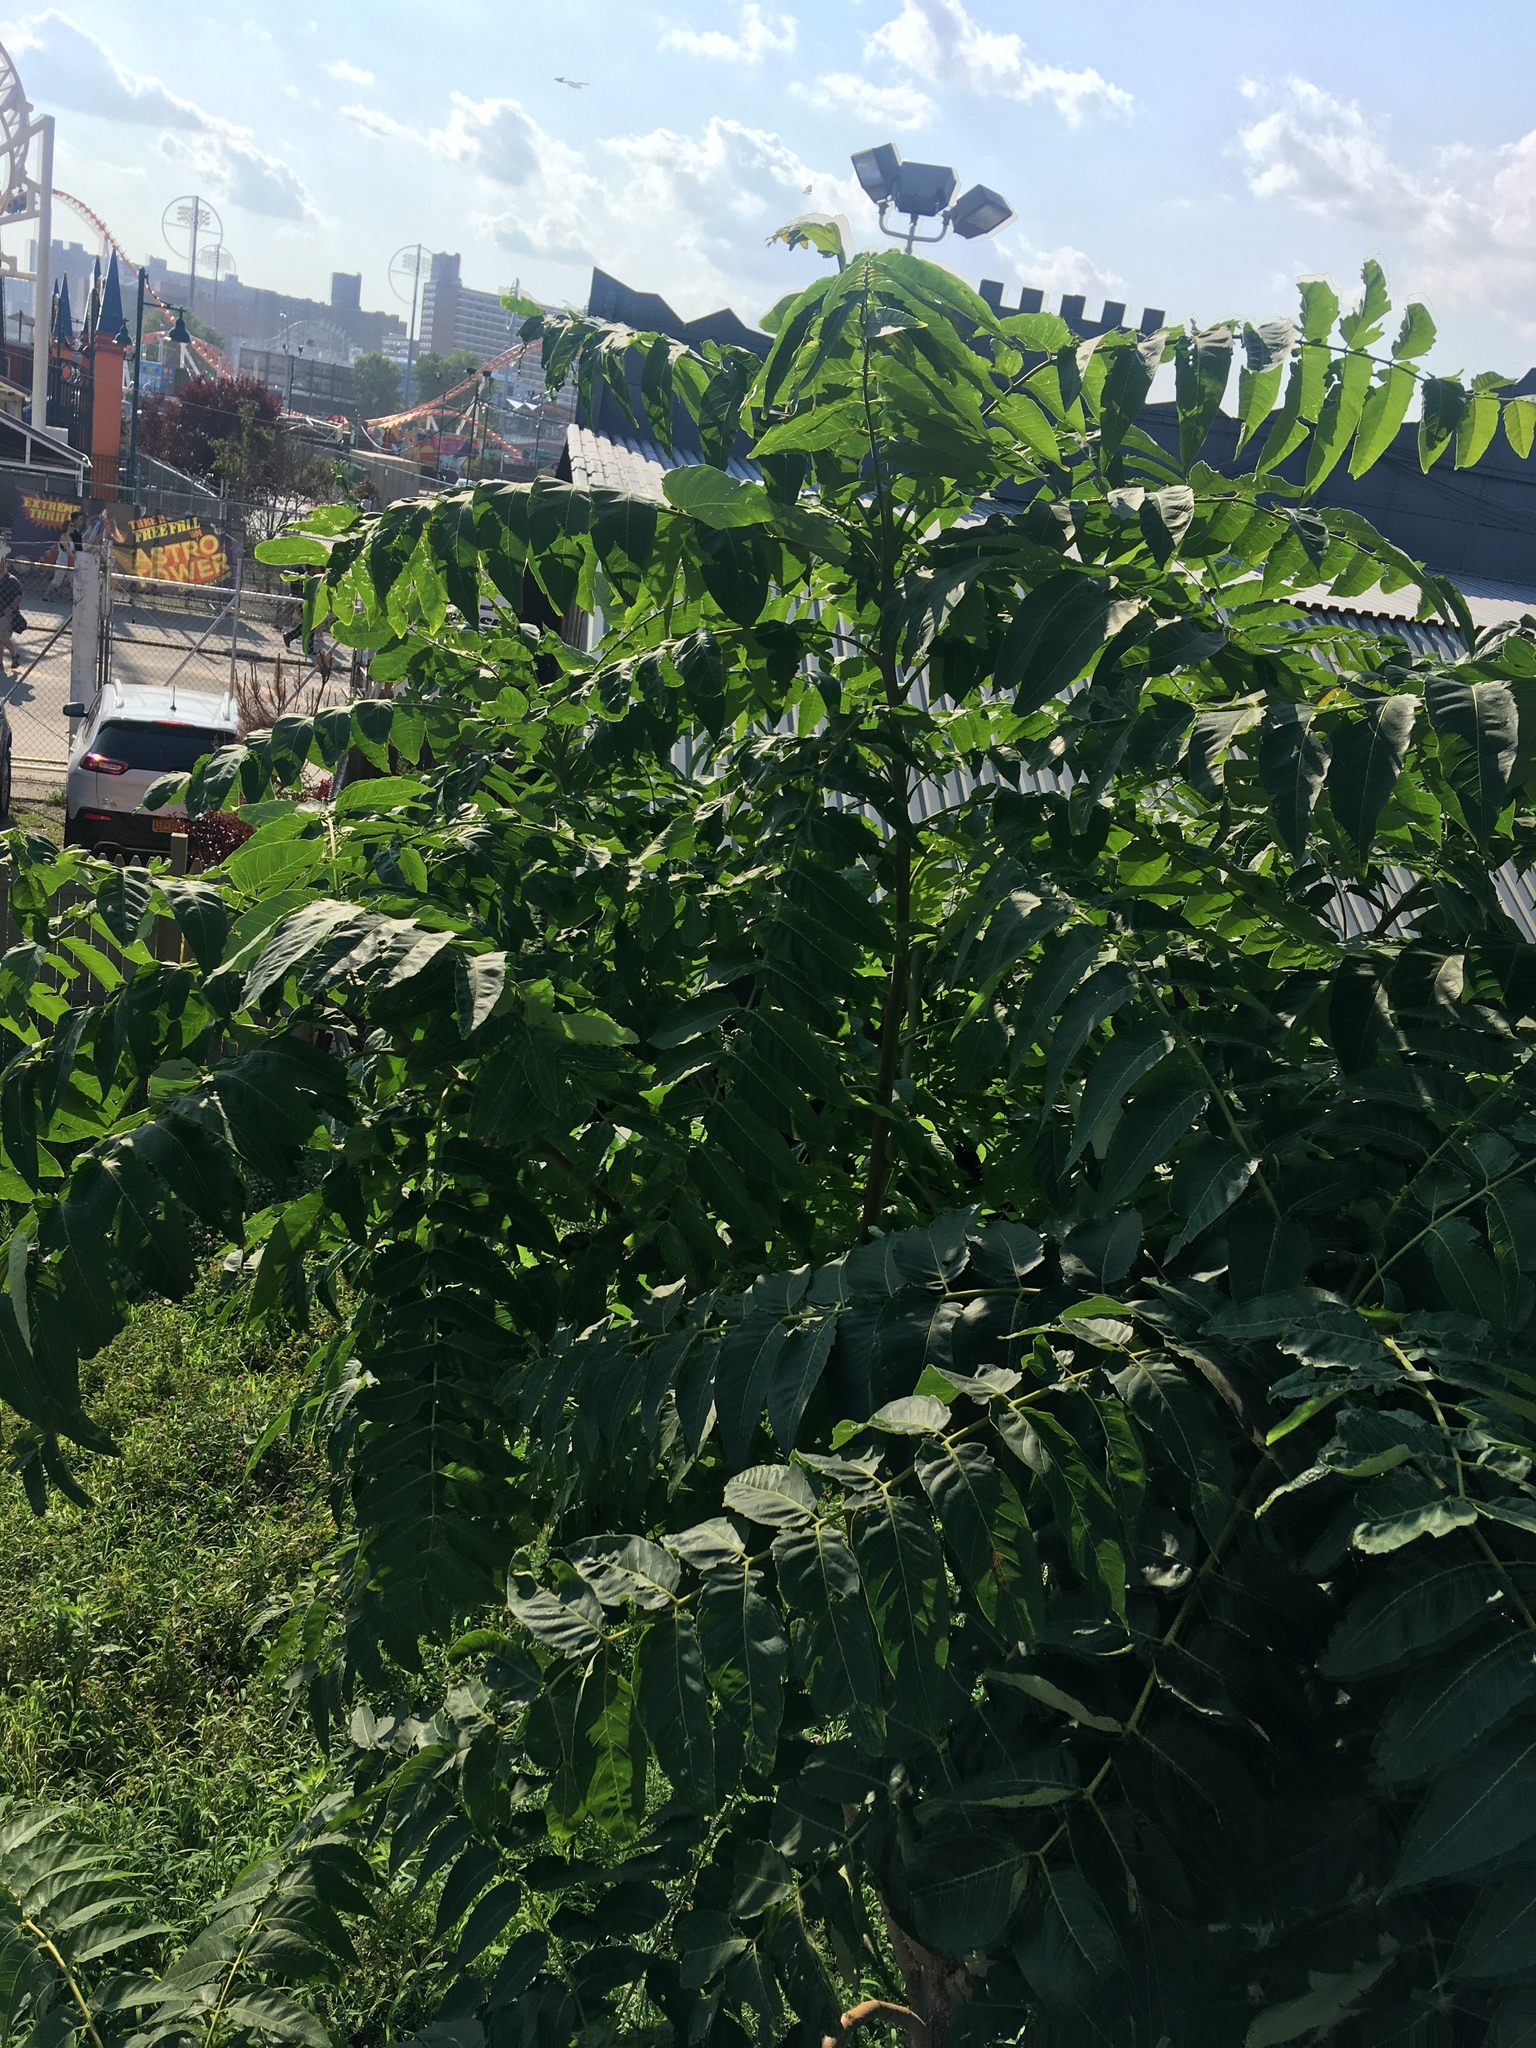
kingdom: Plantae
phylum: Tracheophyta
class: Magnoliopsida
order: Sapindales
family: Simaroubaceae
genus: Ailanthus
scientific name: Ailanthus altissima
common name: Tree-of-heaven
